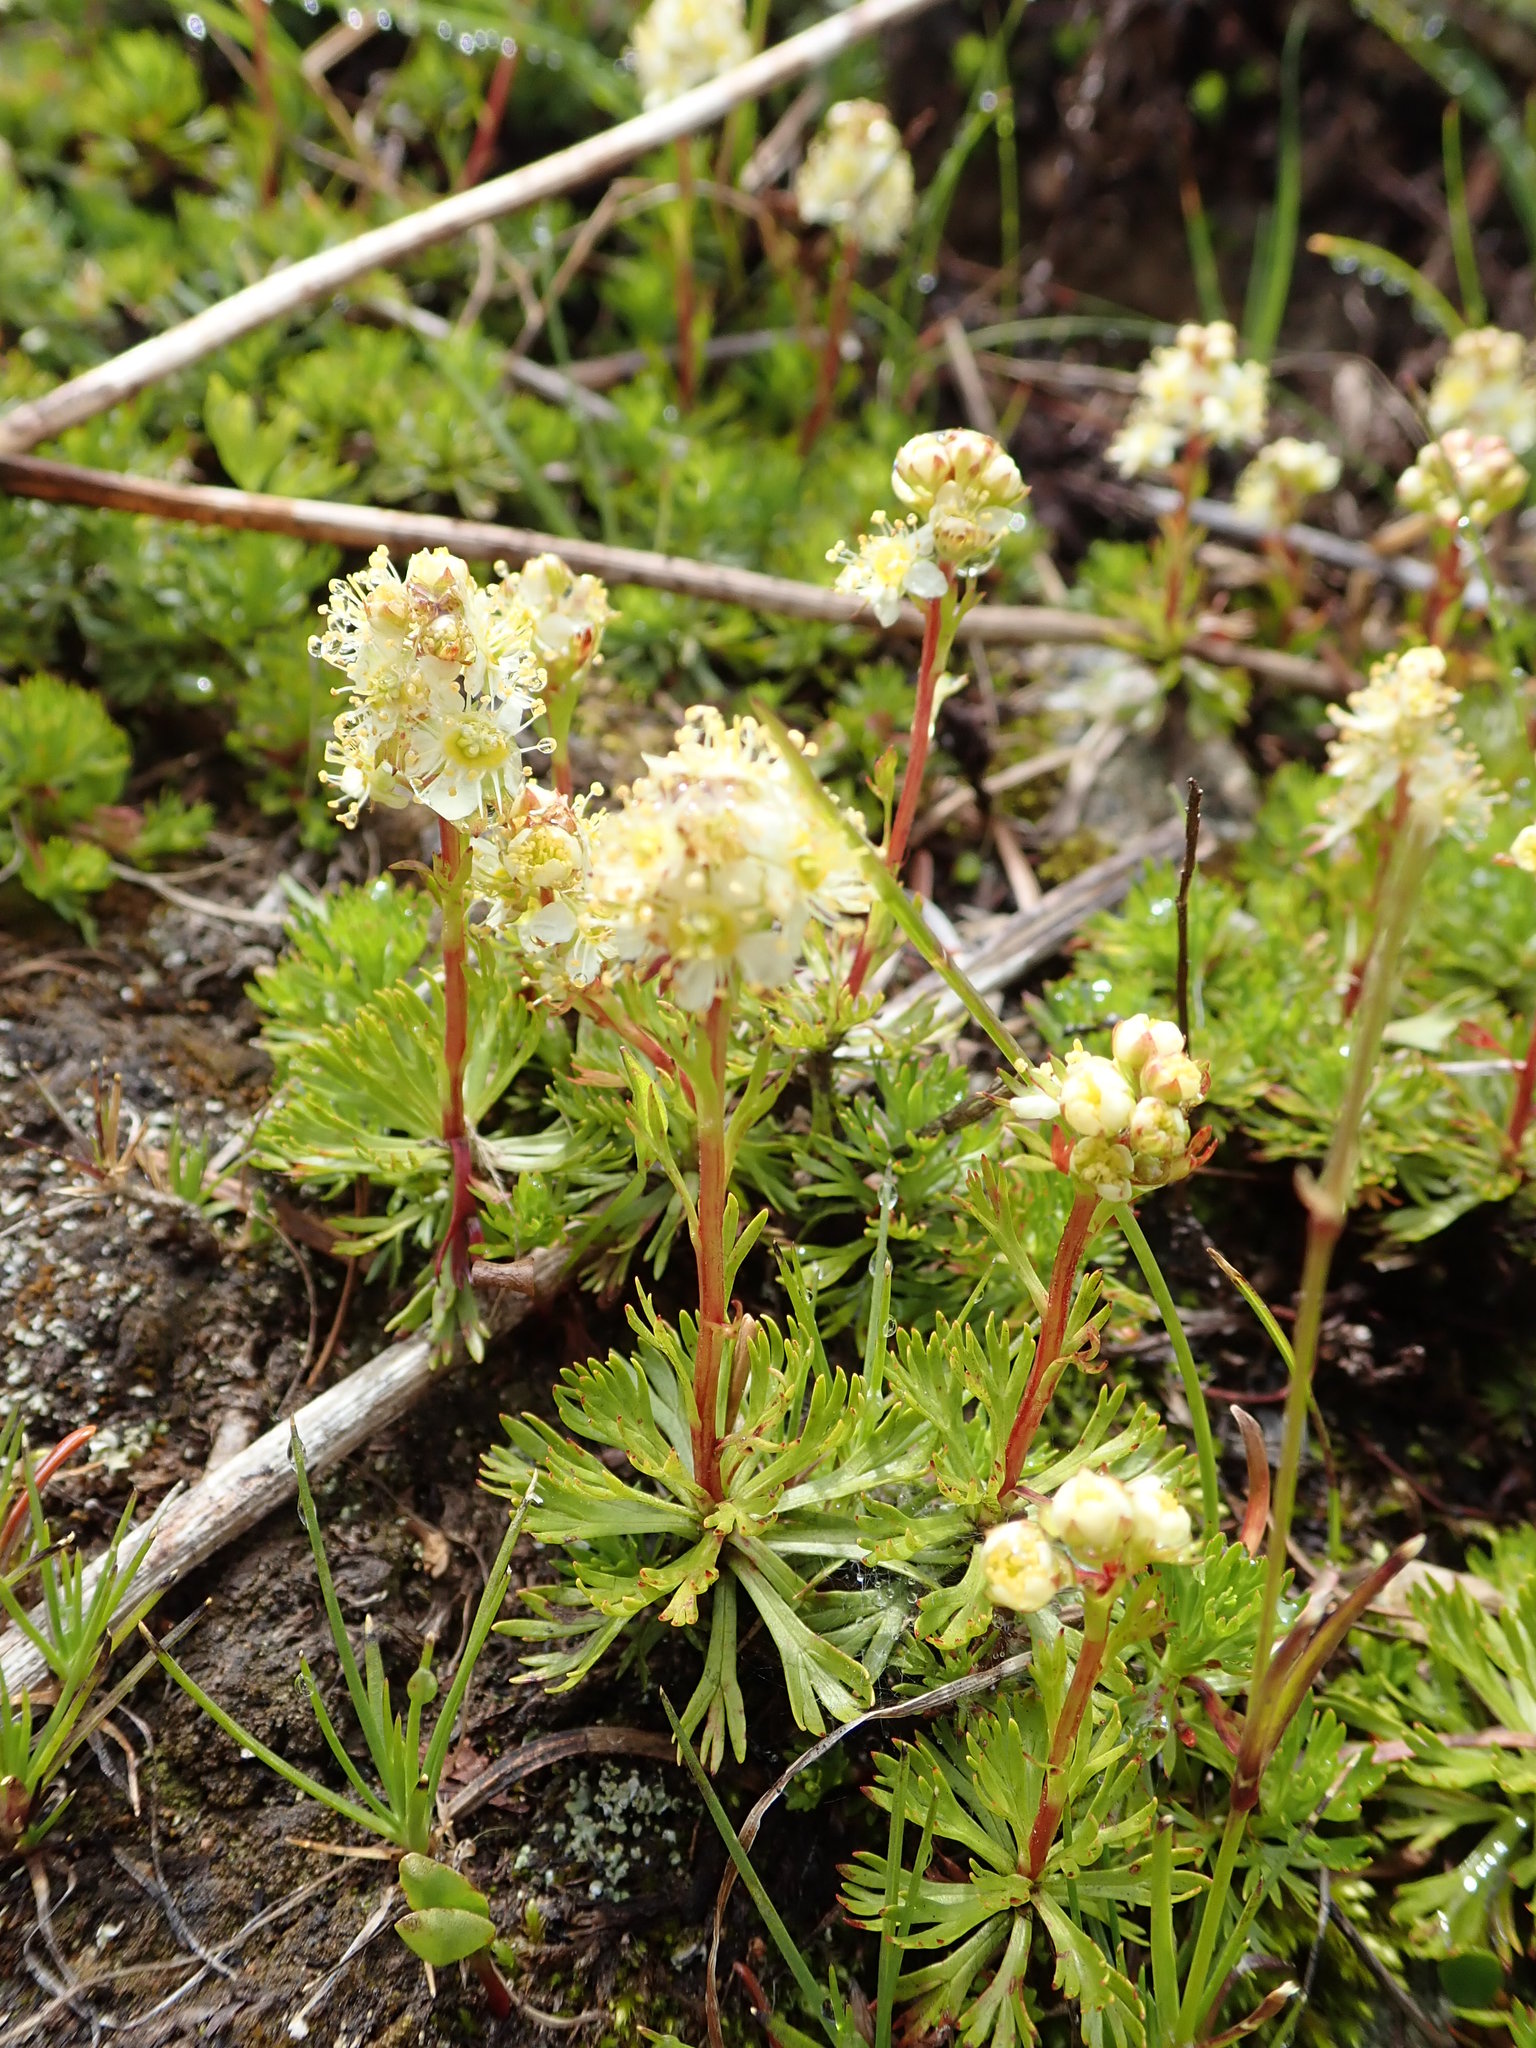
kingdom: Plantae
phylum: Tracheophyta
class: Magnoliopsida
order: Rosales
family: Rosaceae
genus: Luetkea
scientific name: Luetkea pectinata
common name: Partridgefoot
